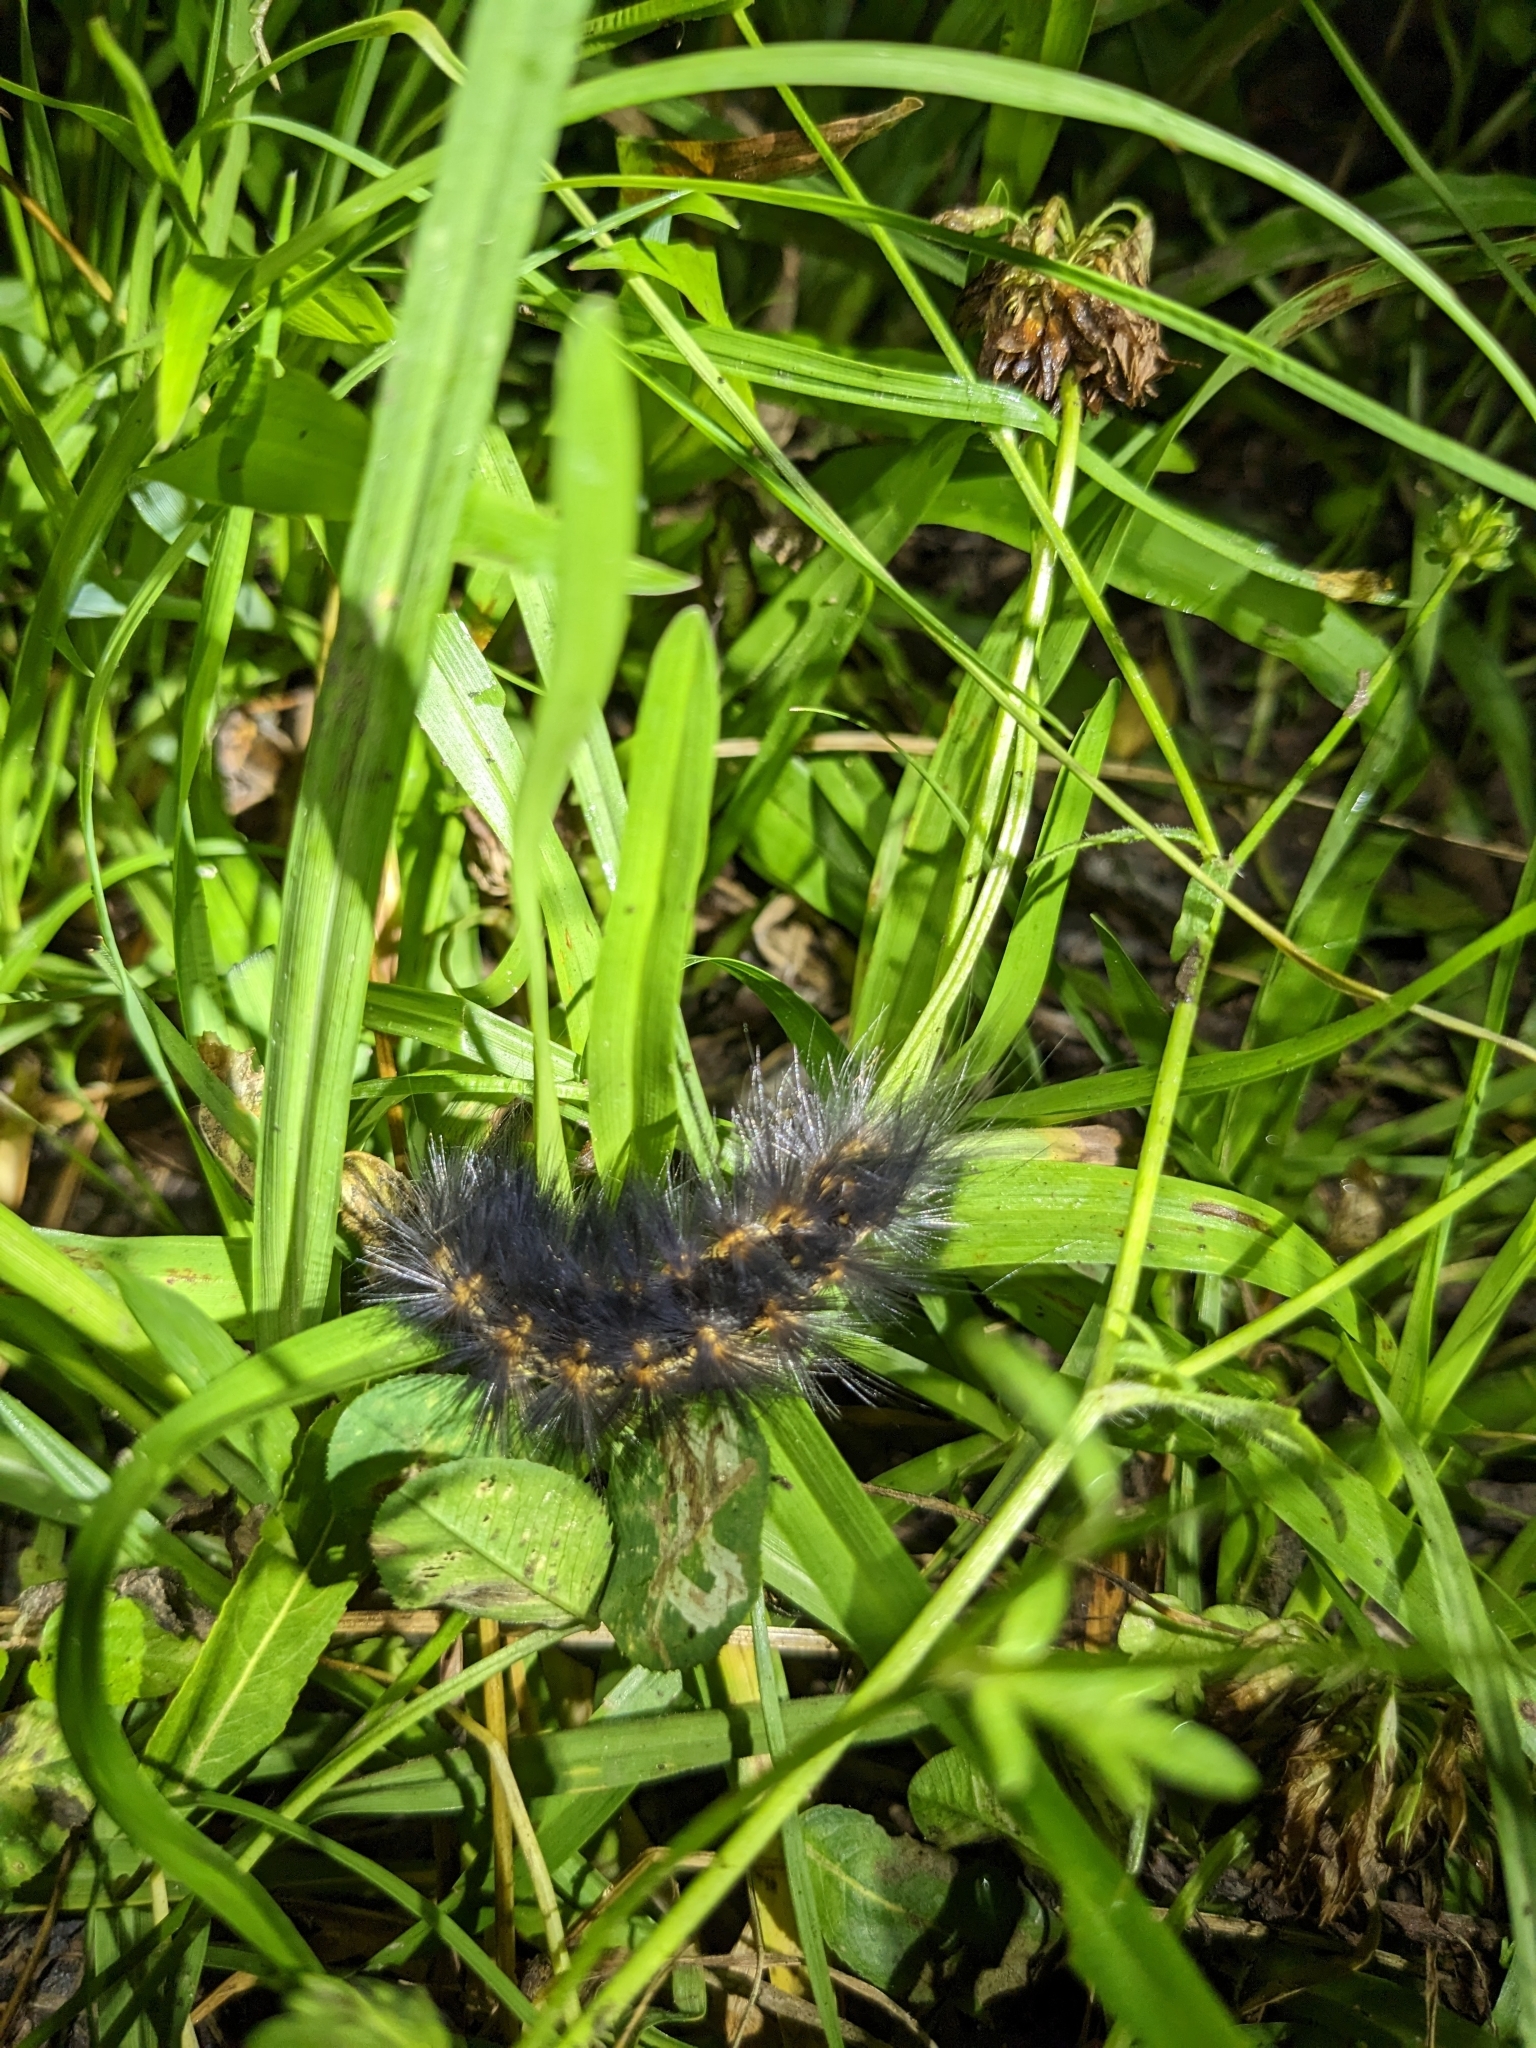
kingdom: Animalia
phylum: Arthropoda
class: Insecta
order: Lepidoptera
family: Erebidae
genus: Estigmene
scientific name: Estigmene acrea
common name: Salt marsh moth
